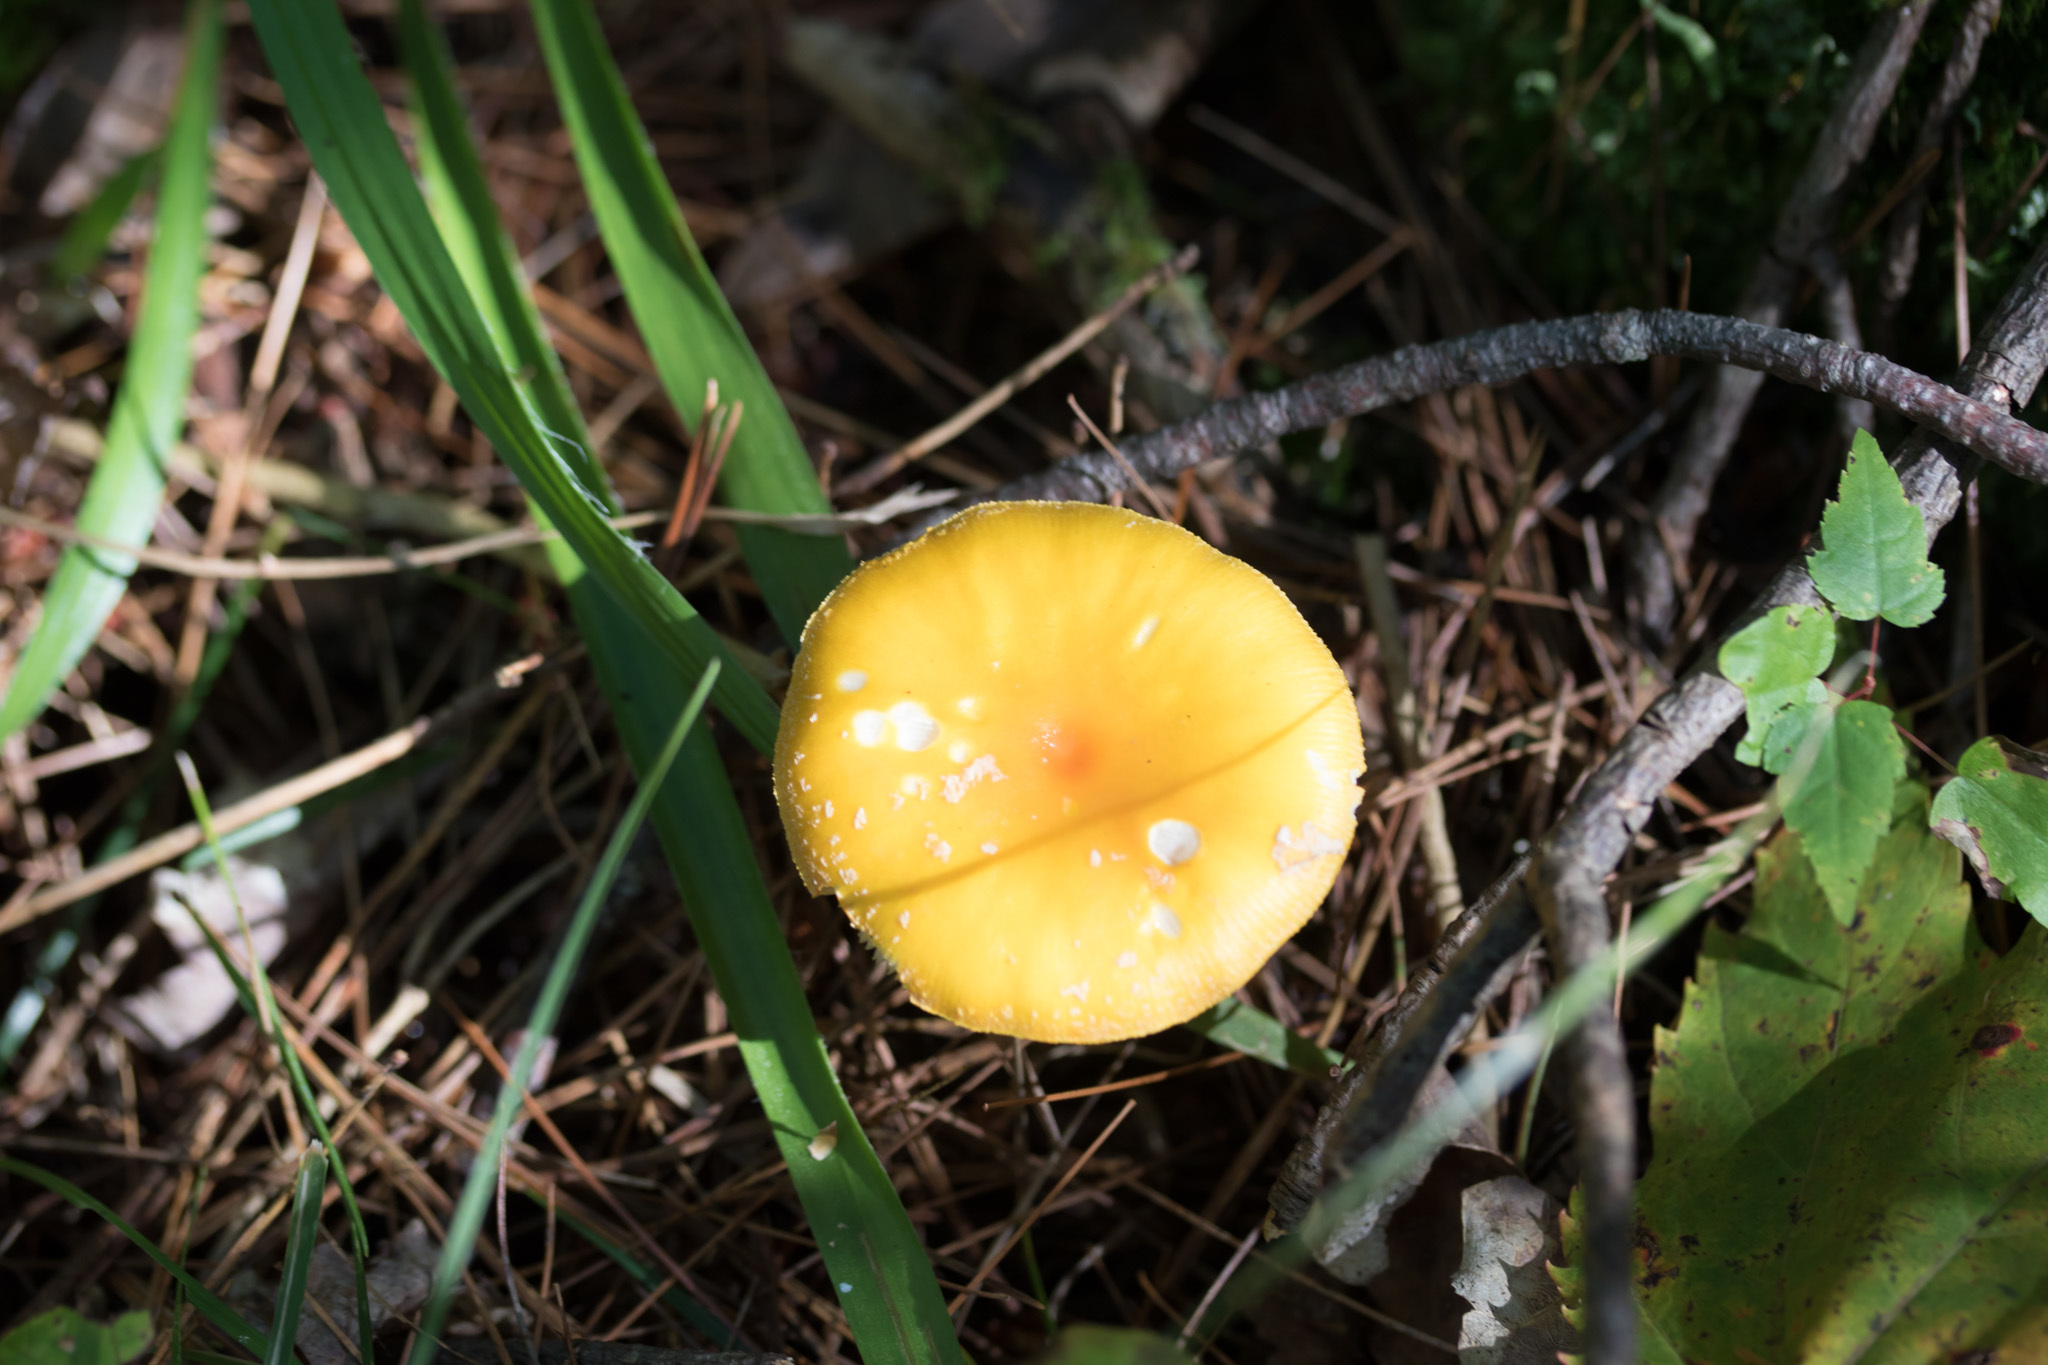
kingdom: Fungi
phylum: Basidiomycota
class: Agaricomycetes
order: Agaricales
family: Amanitaceae
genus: Amanita
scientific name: Amanita flavoconia
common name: Yellow patches
